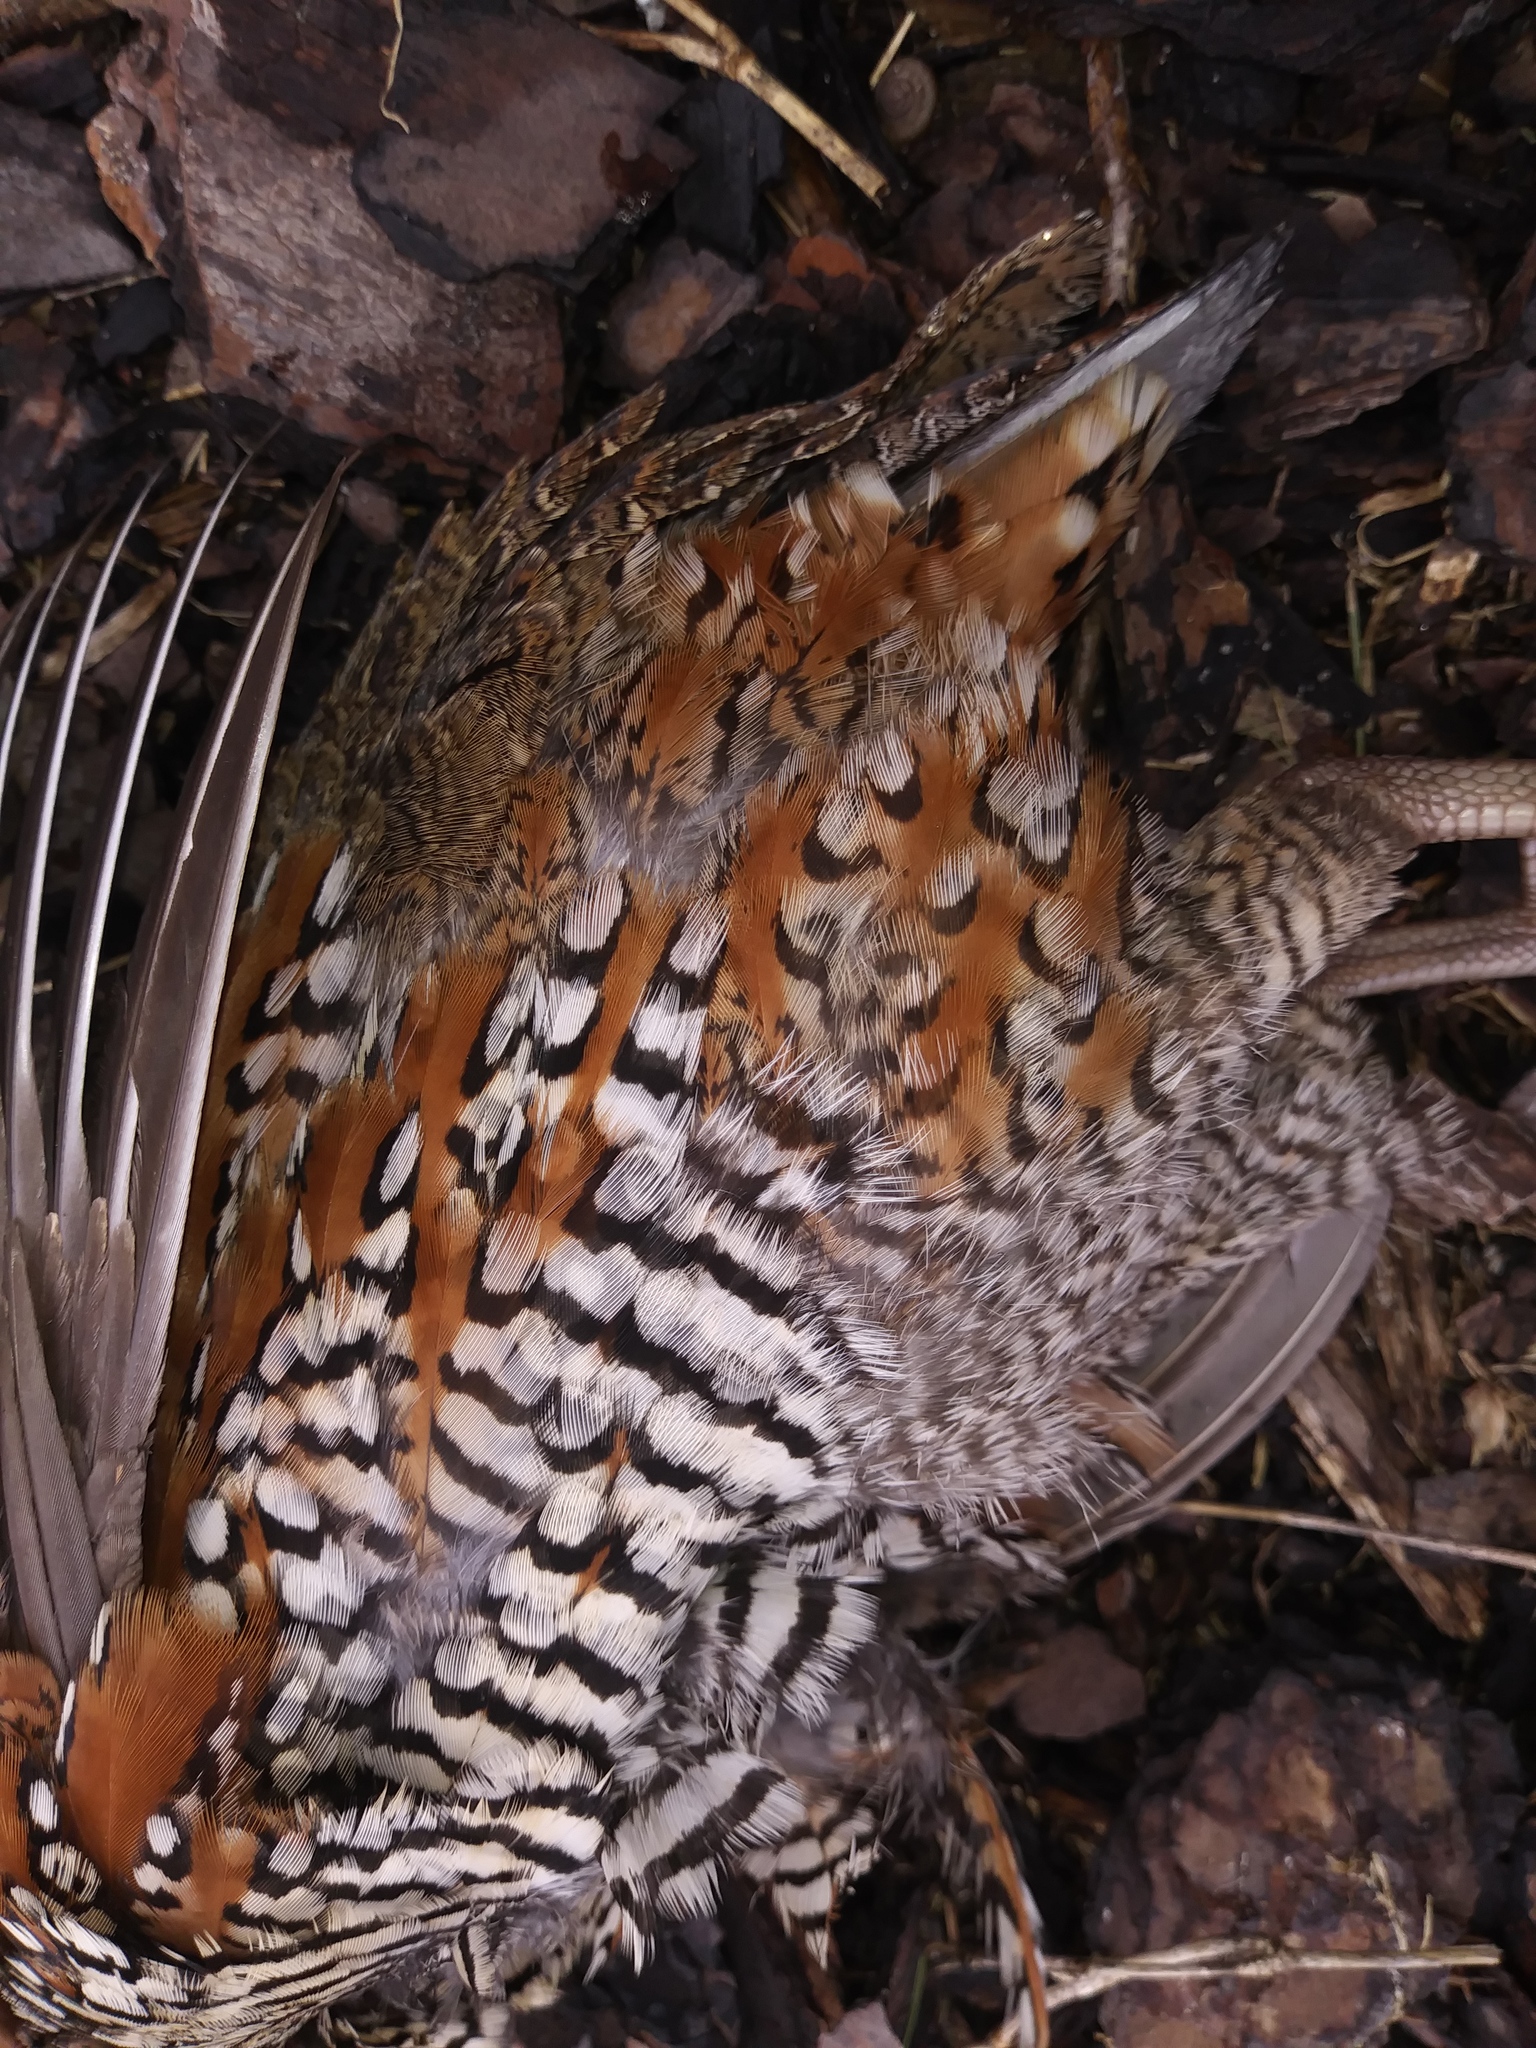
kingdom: Animalia
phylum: Chordata
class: Aves
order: Galliformes
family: Odontophoridae
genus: Colinus
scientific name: Colinus virginianus
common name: Northern bobwhite
